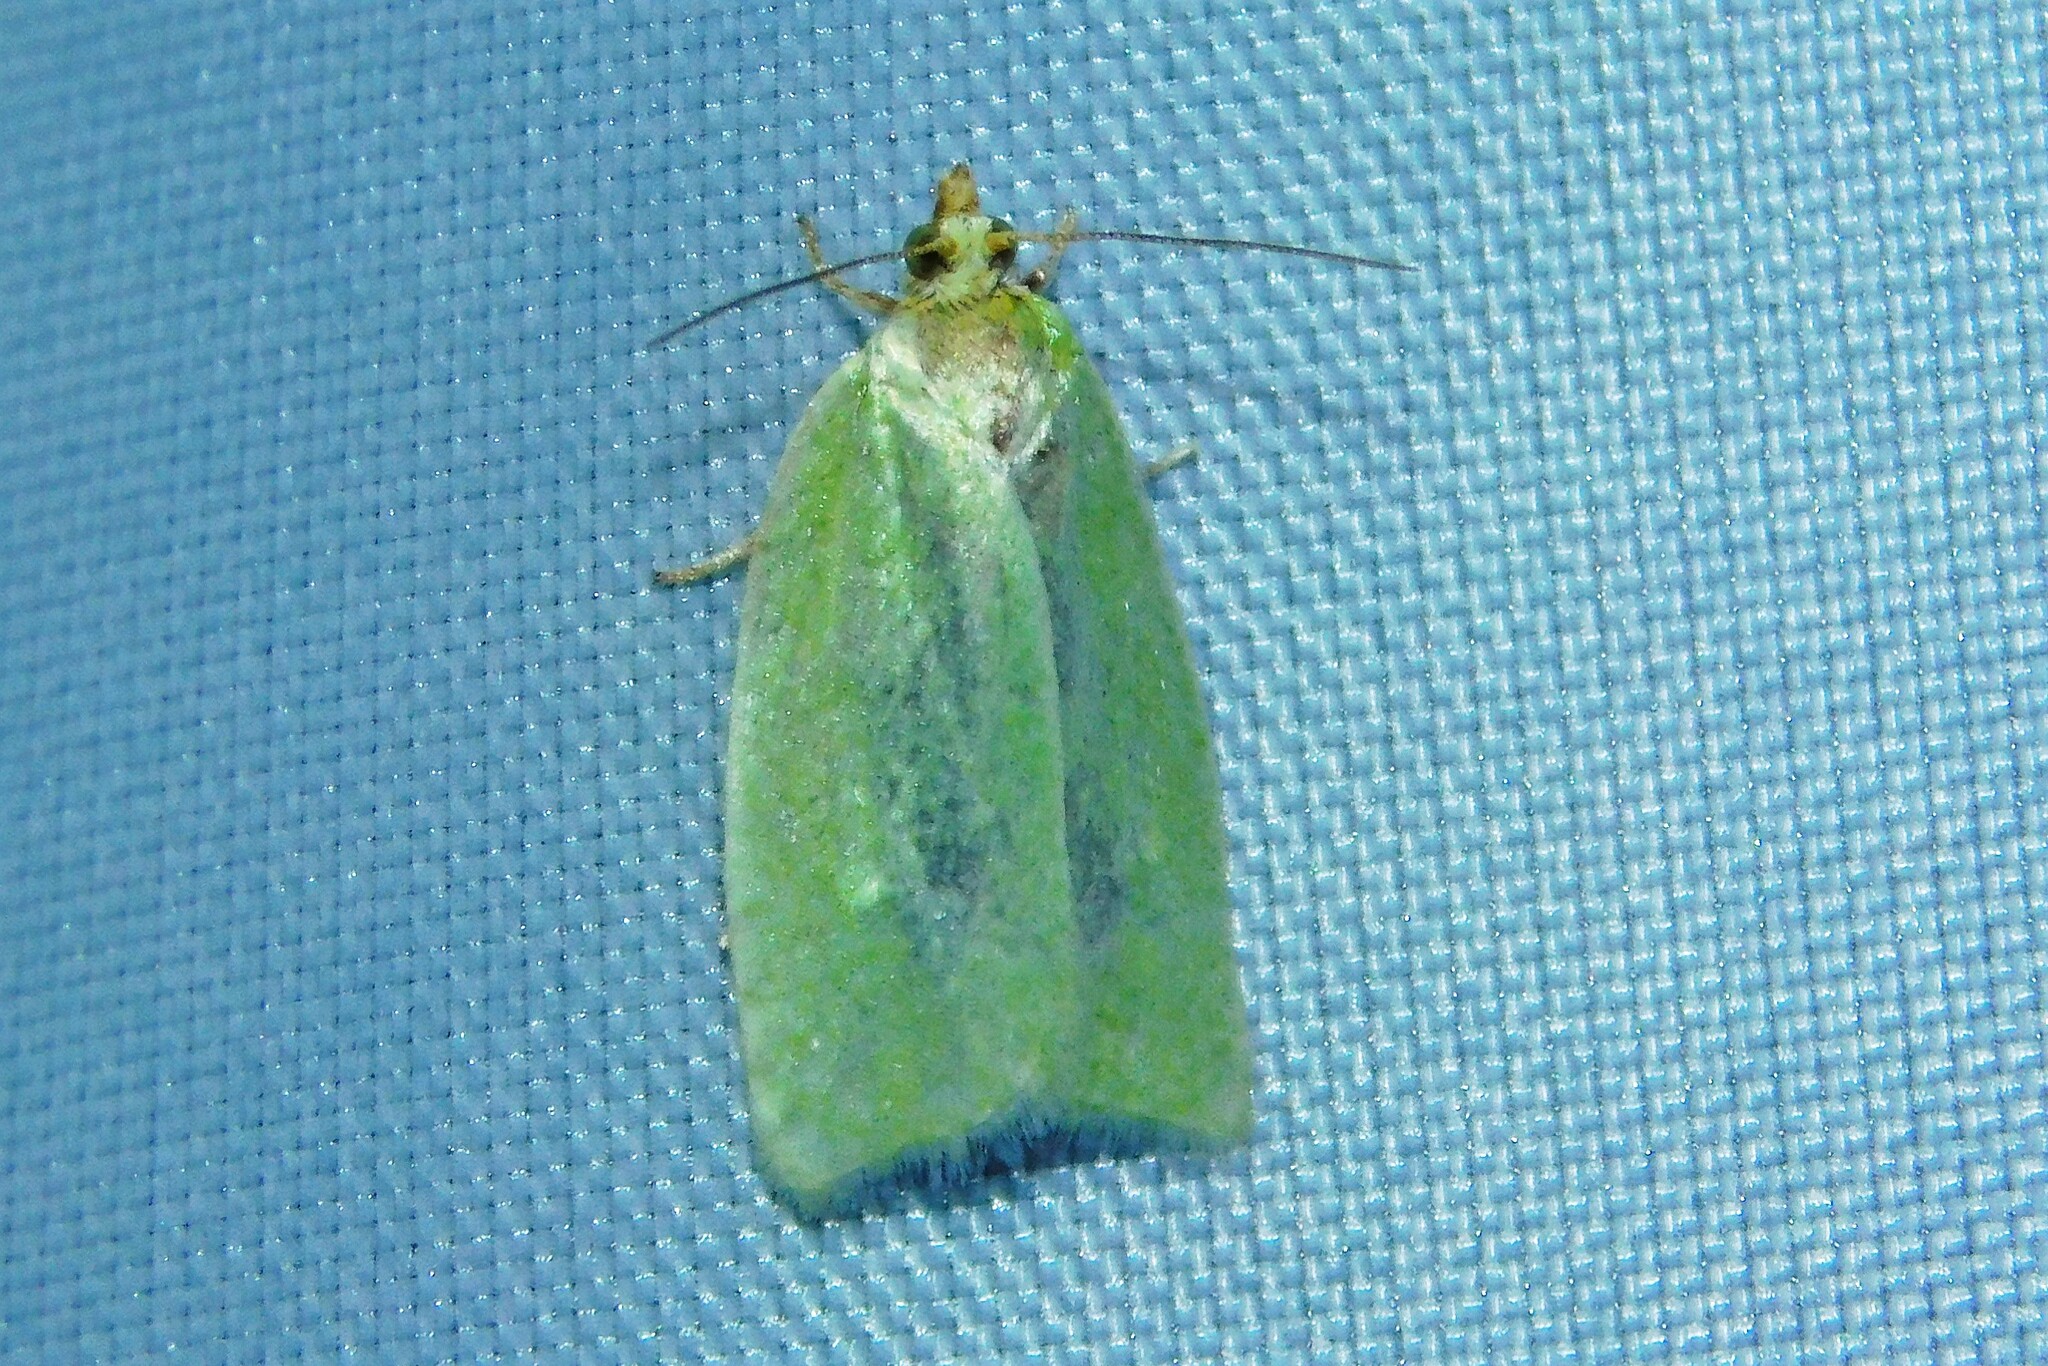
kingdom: Animalia
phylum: Arthropoda
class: Insecta
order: Lepidoptera
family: Tortricidae
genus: Tortrix
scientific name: Tortrix viridana
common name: Green oak tortrix
